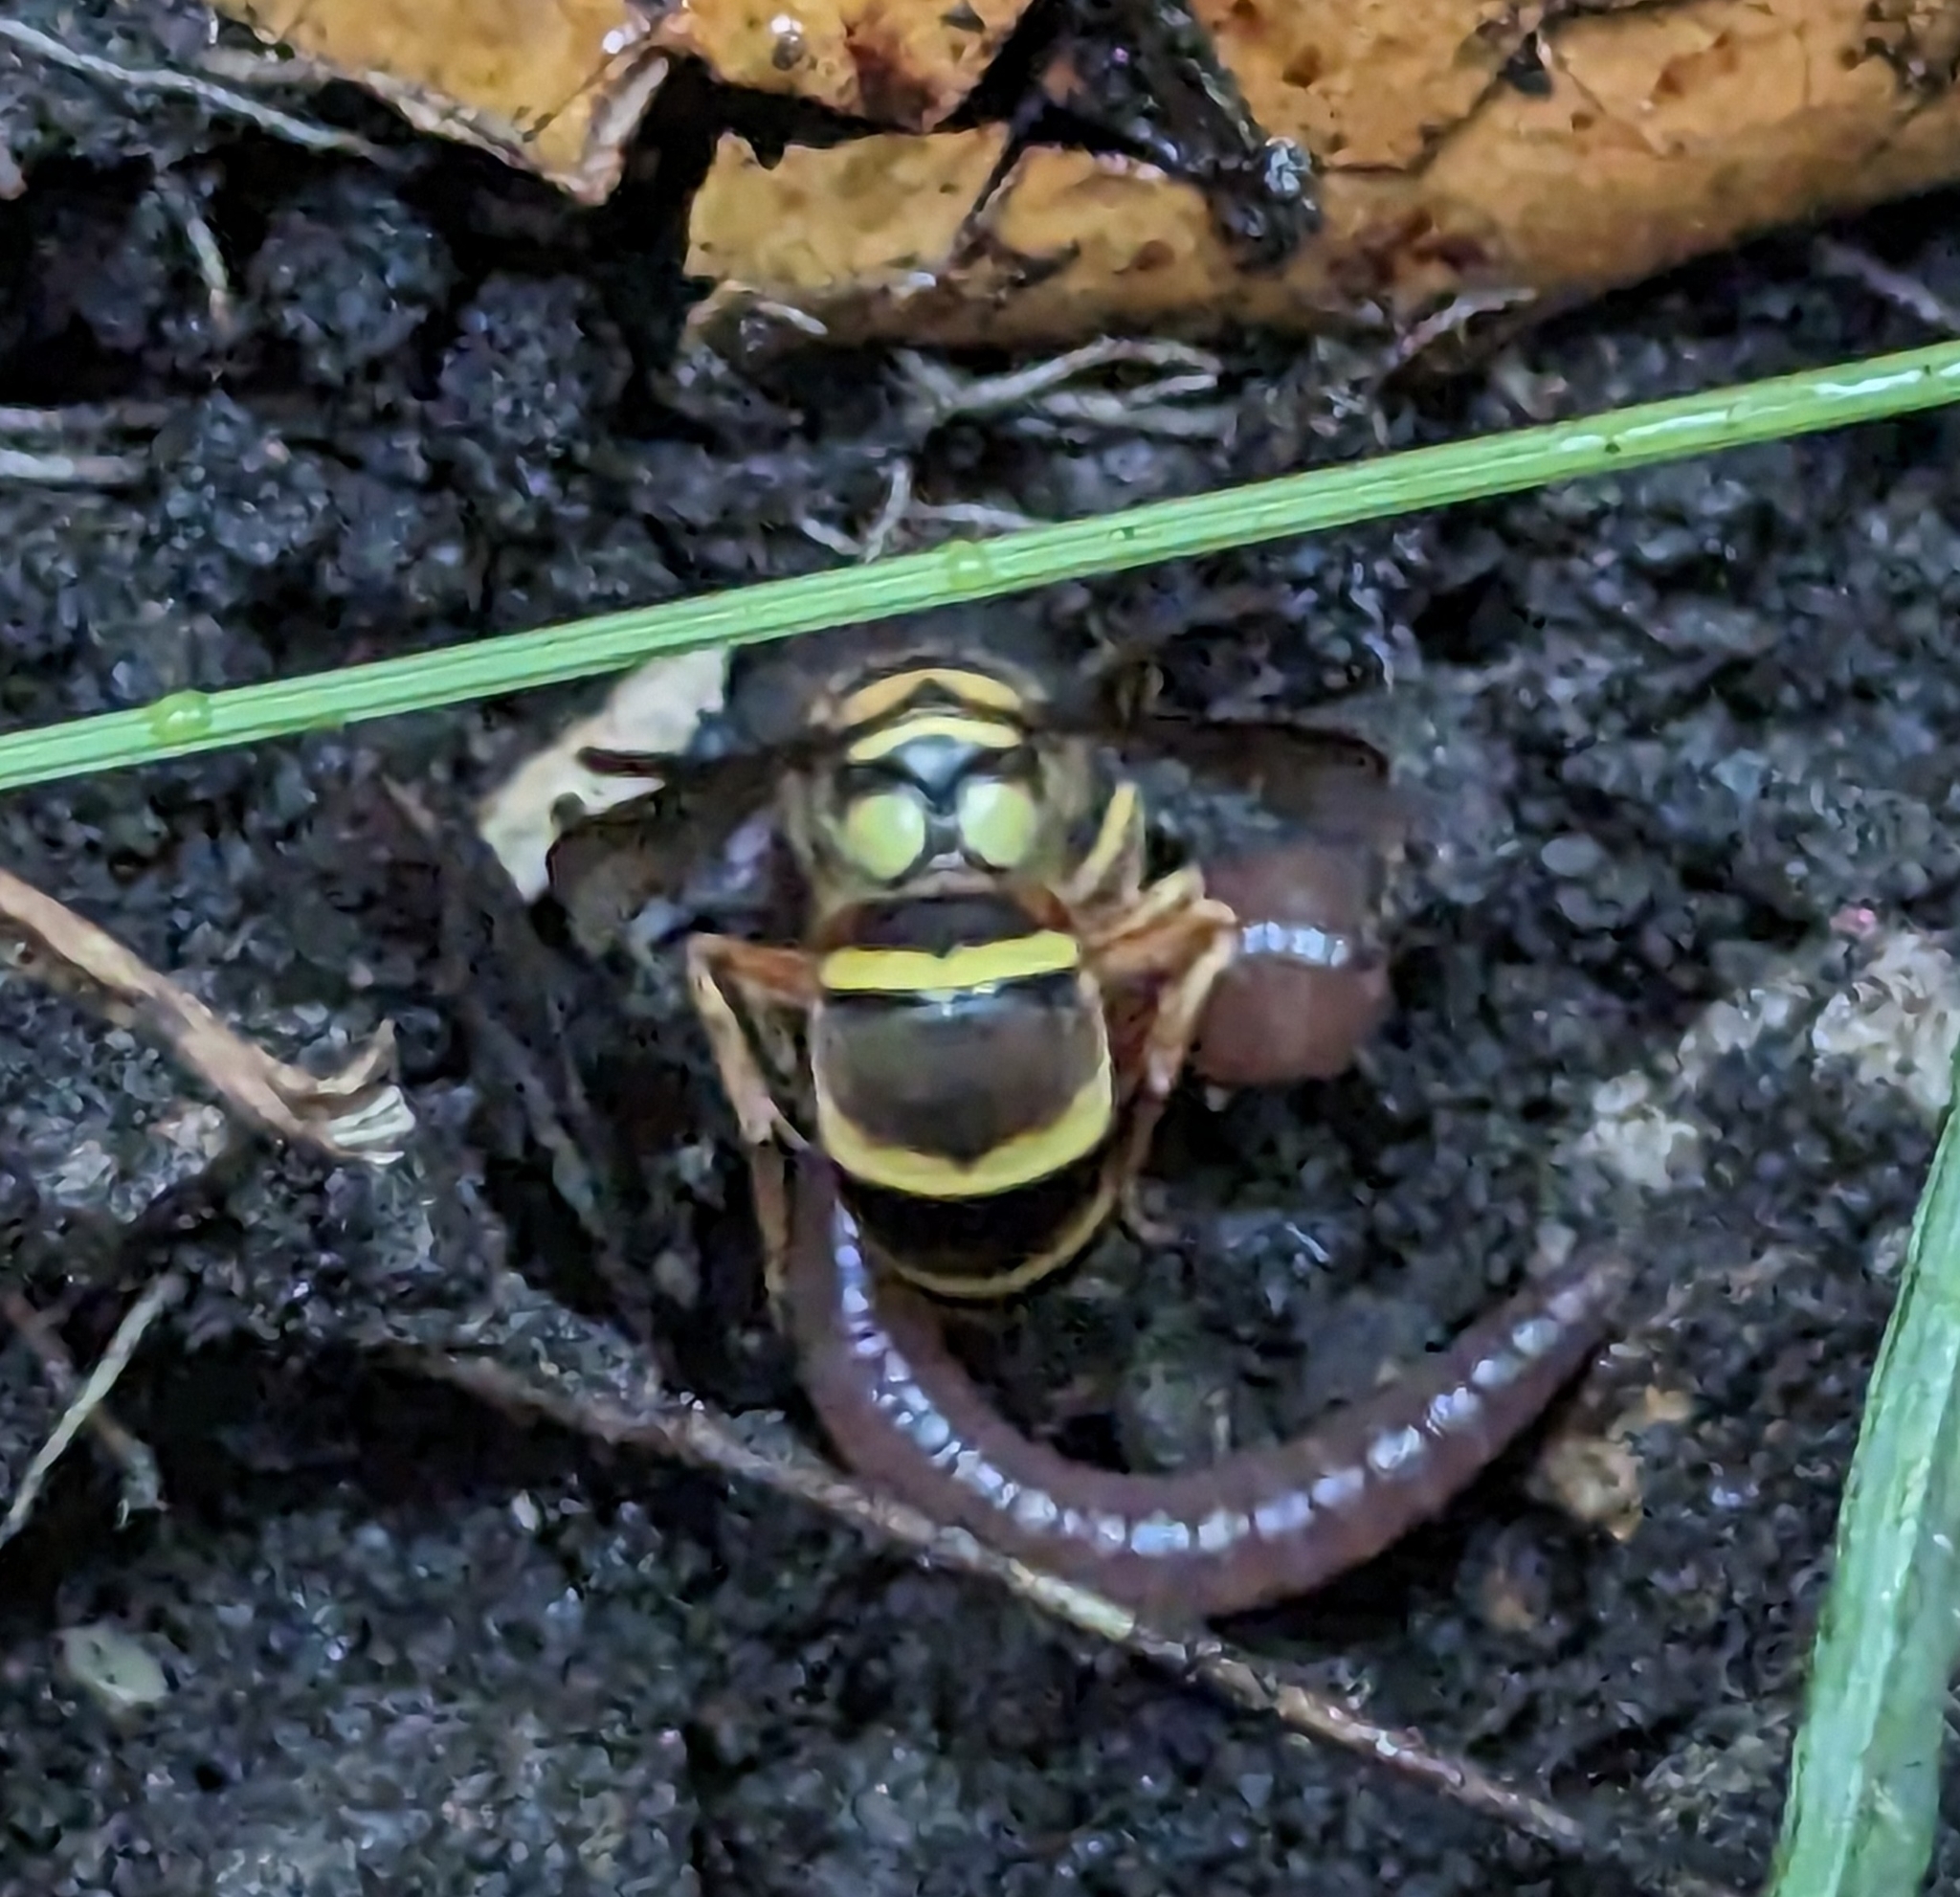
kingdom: Animalia
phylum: Arthropoda
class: Insecta
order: Hymenoptera
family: Vespidae
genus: Vespula
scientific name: Vespula arisana
